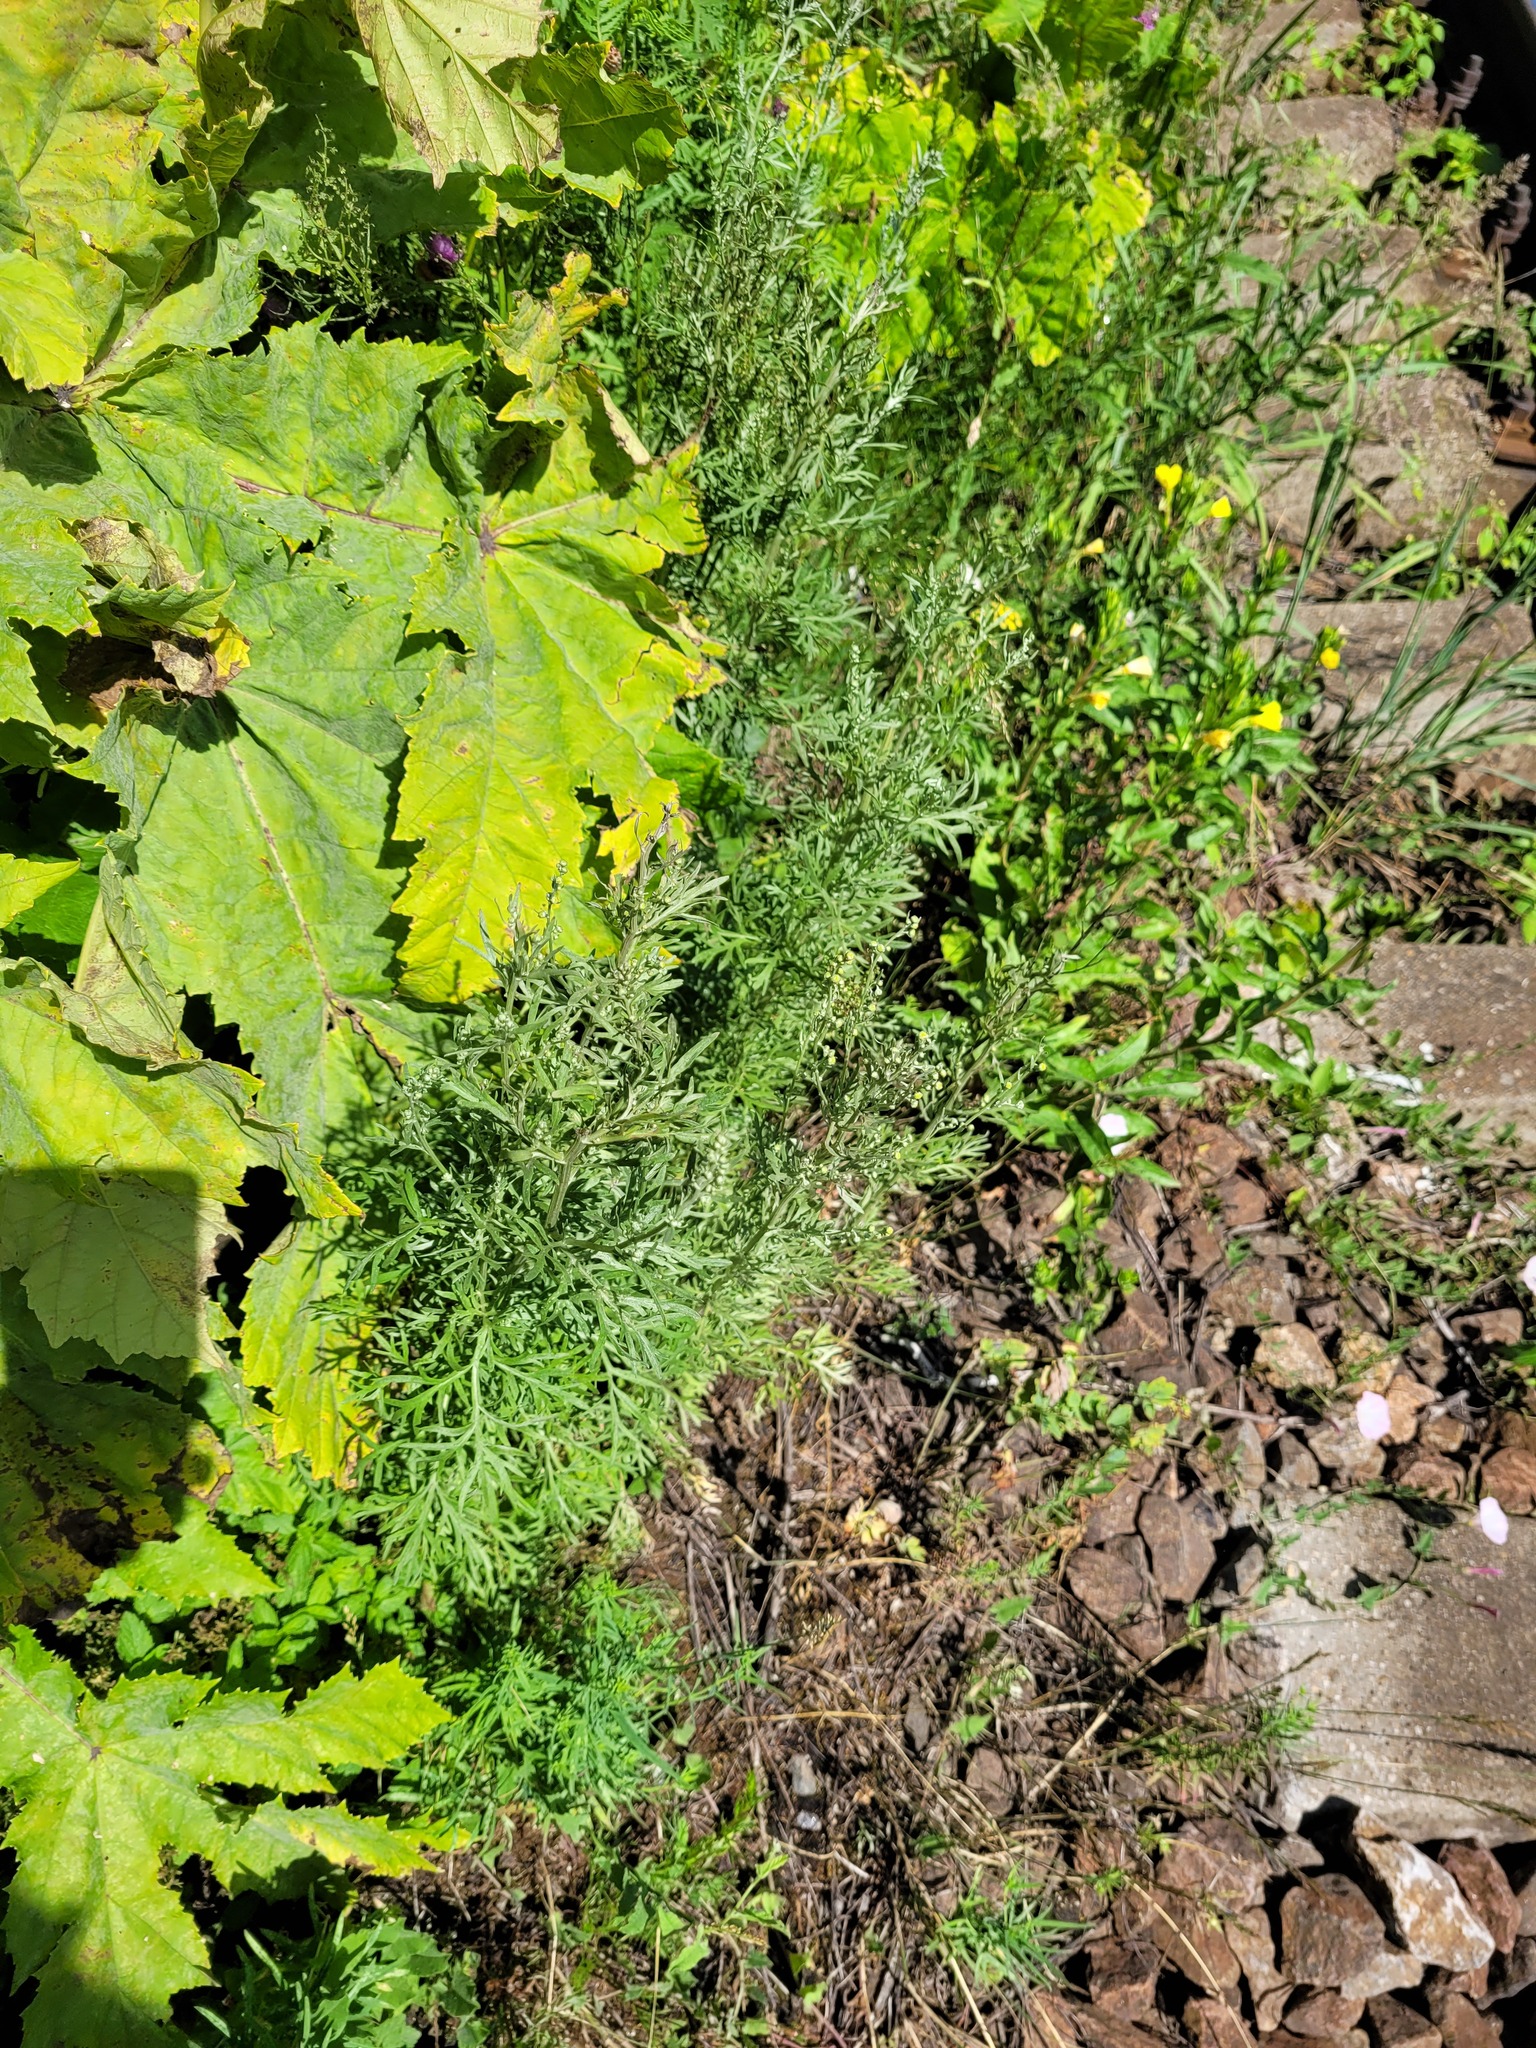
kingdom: Plantae
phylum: Tracheophyta
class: Magnoliopsida
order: Asterales
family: Asteraceae
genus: Artemisia
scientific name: Artemisia absinthium
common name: Wormwood
